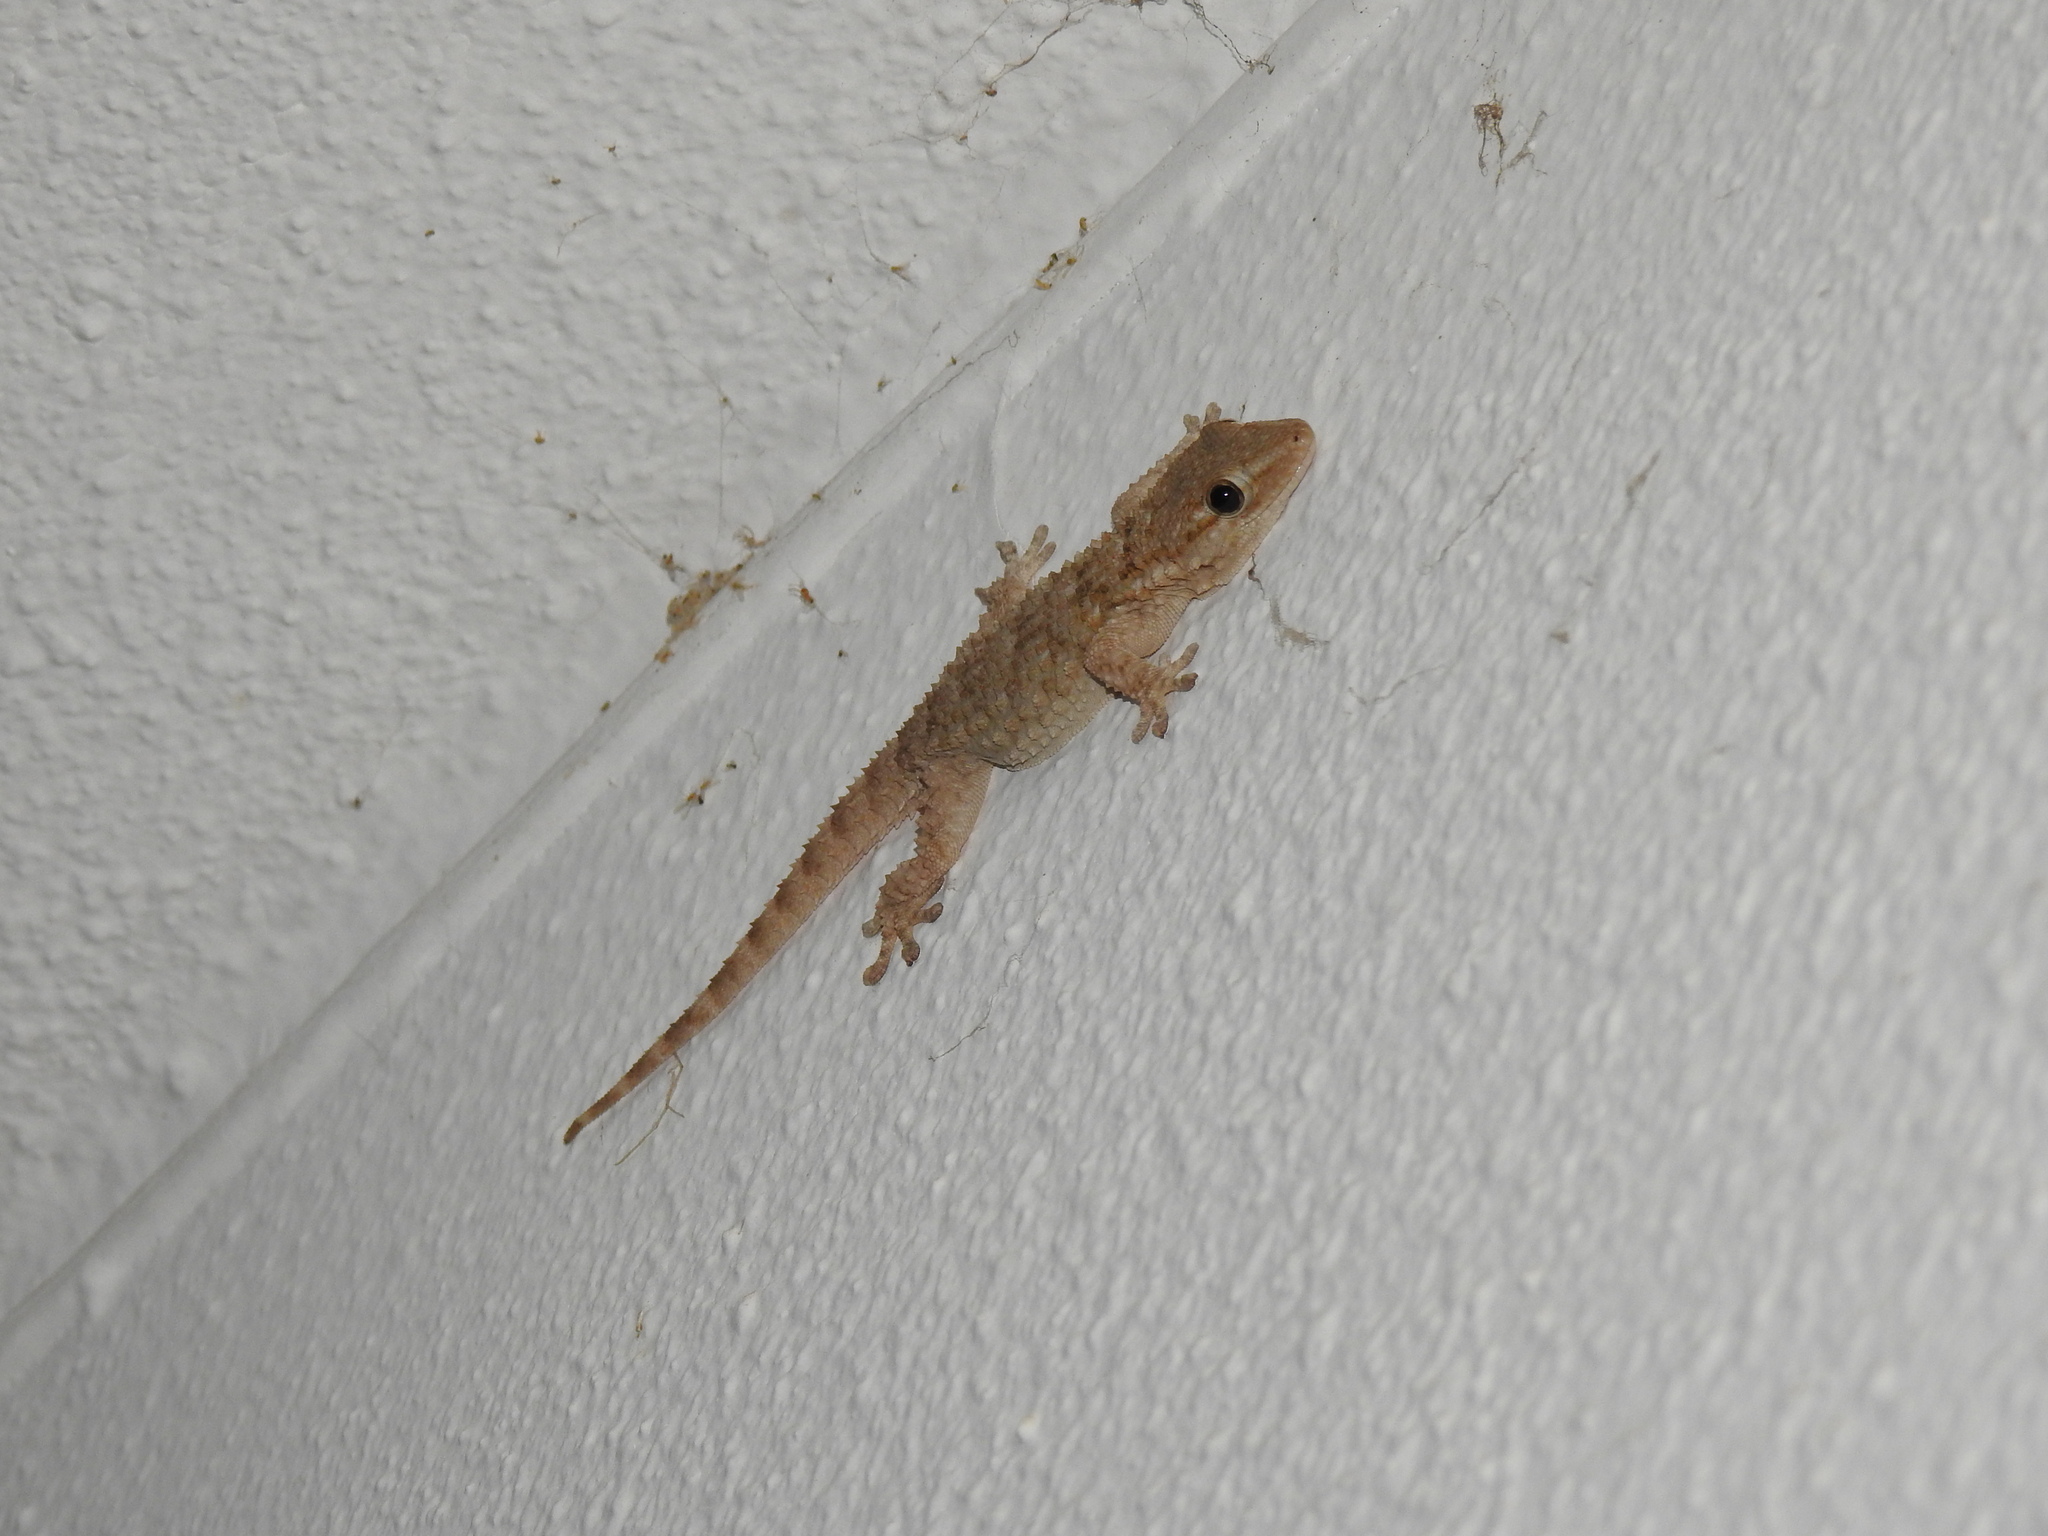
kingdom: Animalia
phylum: Chordata
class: Squamata
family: Phyllodactylidae
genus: Tarentola
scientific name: Tarentola mauritanica
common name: Moorish gecko
